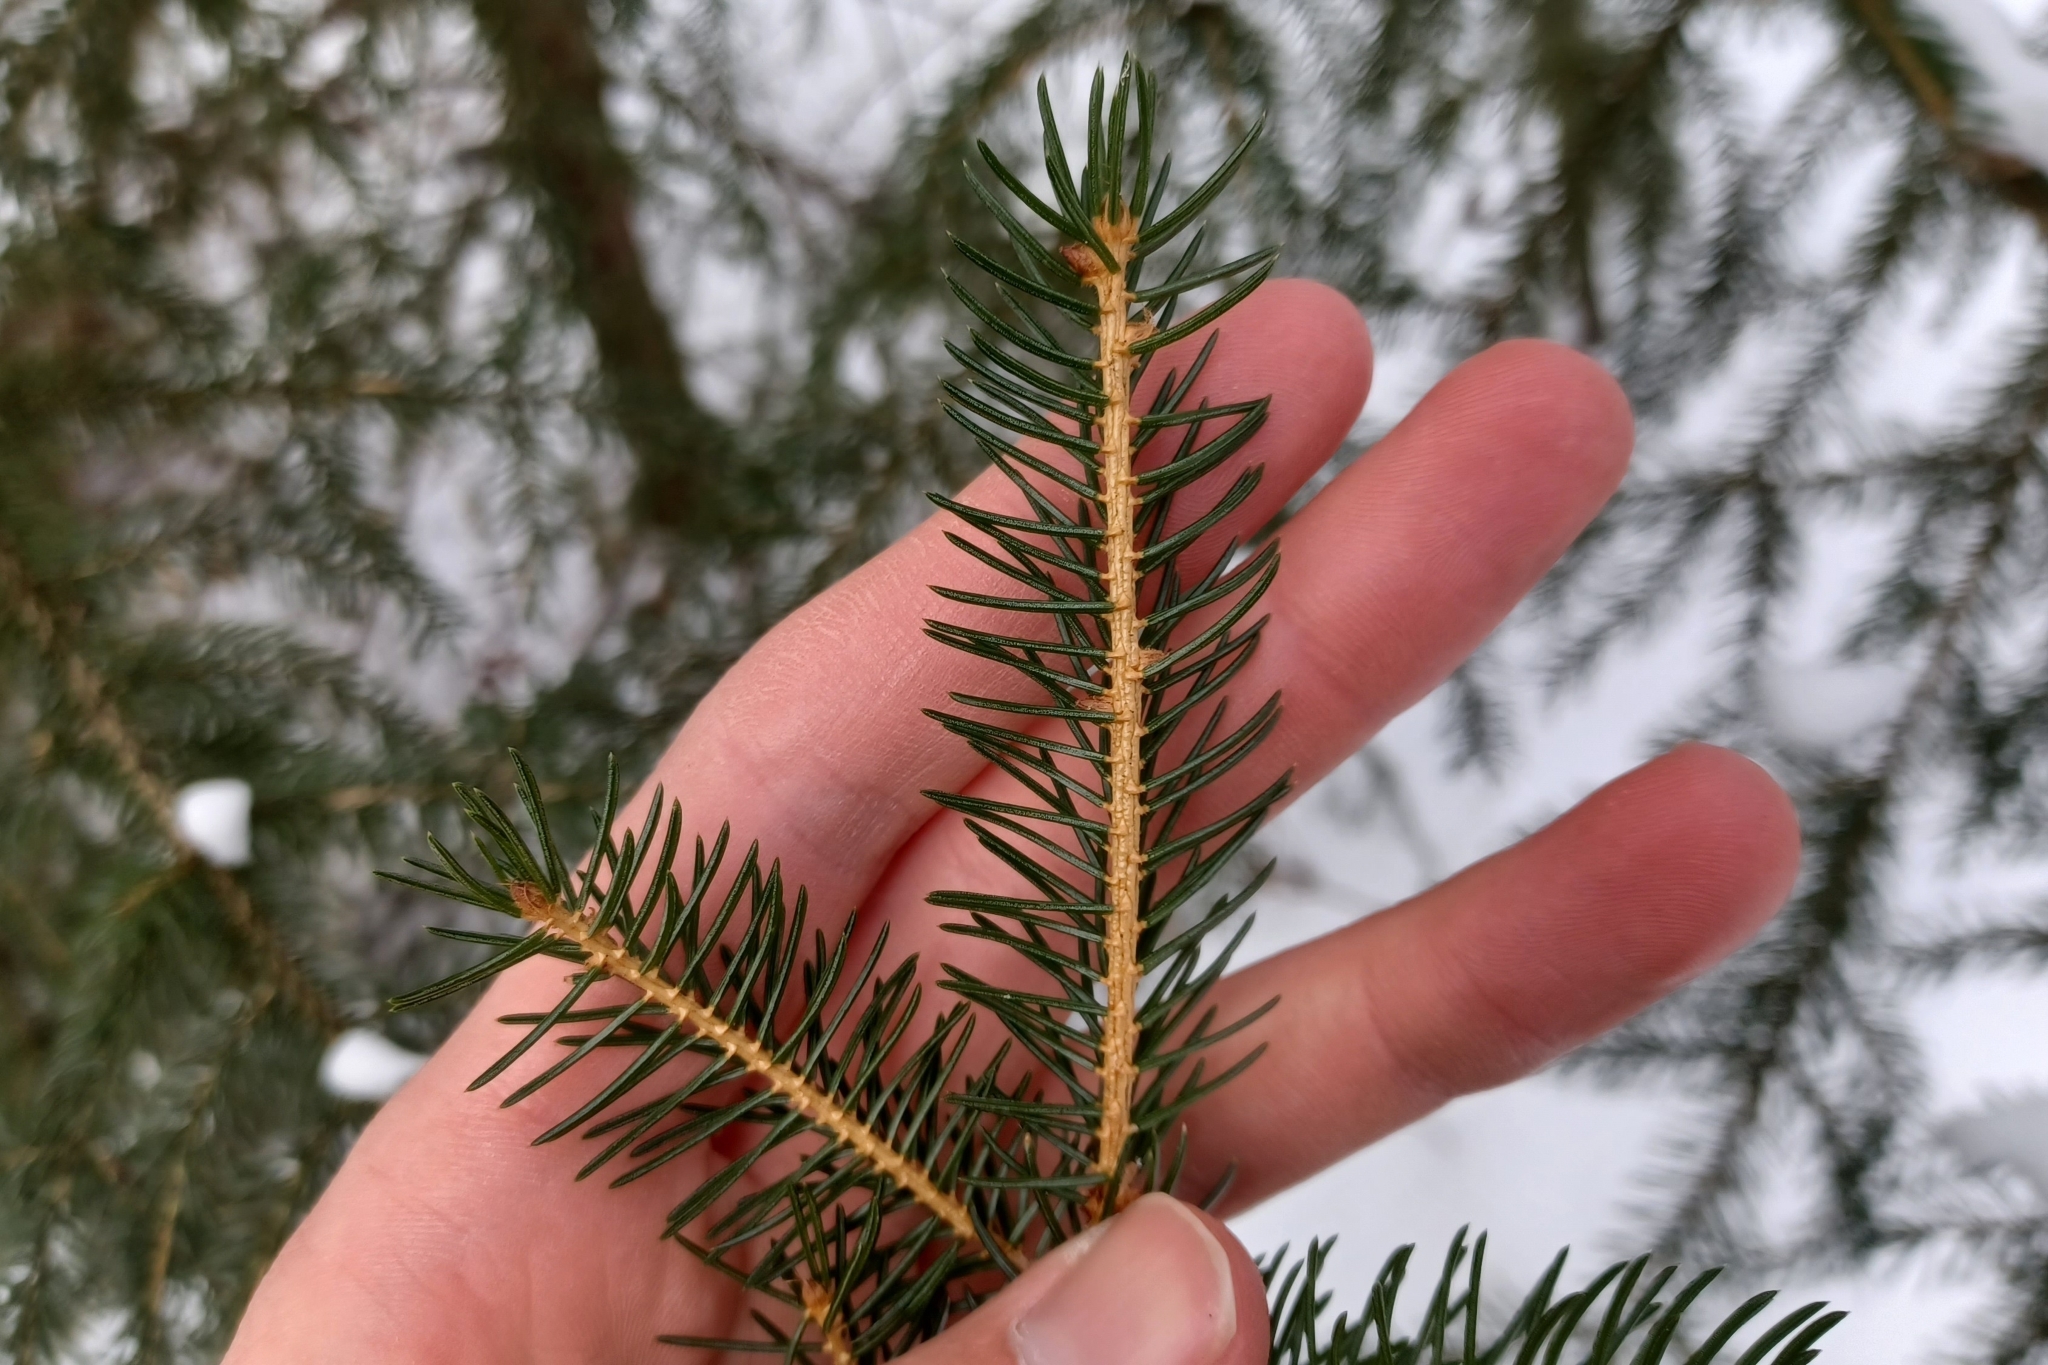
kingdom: Plantae
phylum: Tracheophyta
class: Pinopsida
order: Pinales
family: Pinaceae
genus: Picea
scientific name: Picea rubens
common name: Red spruce
